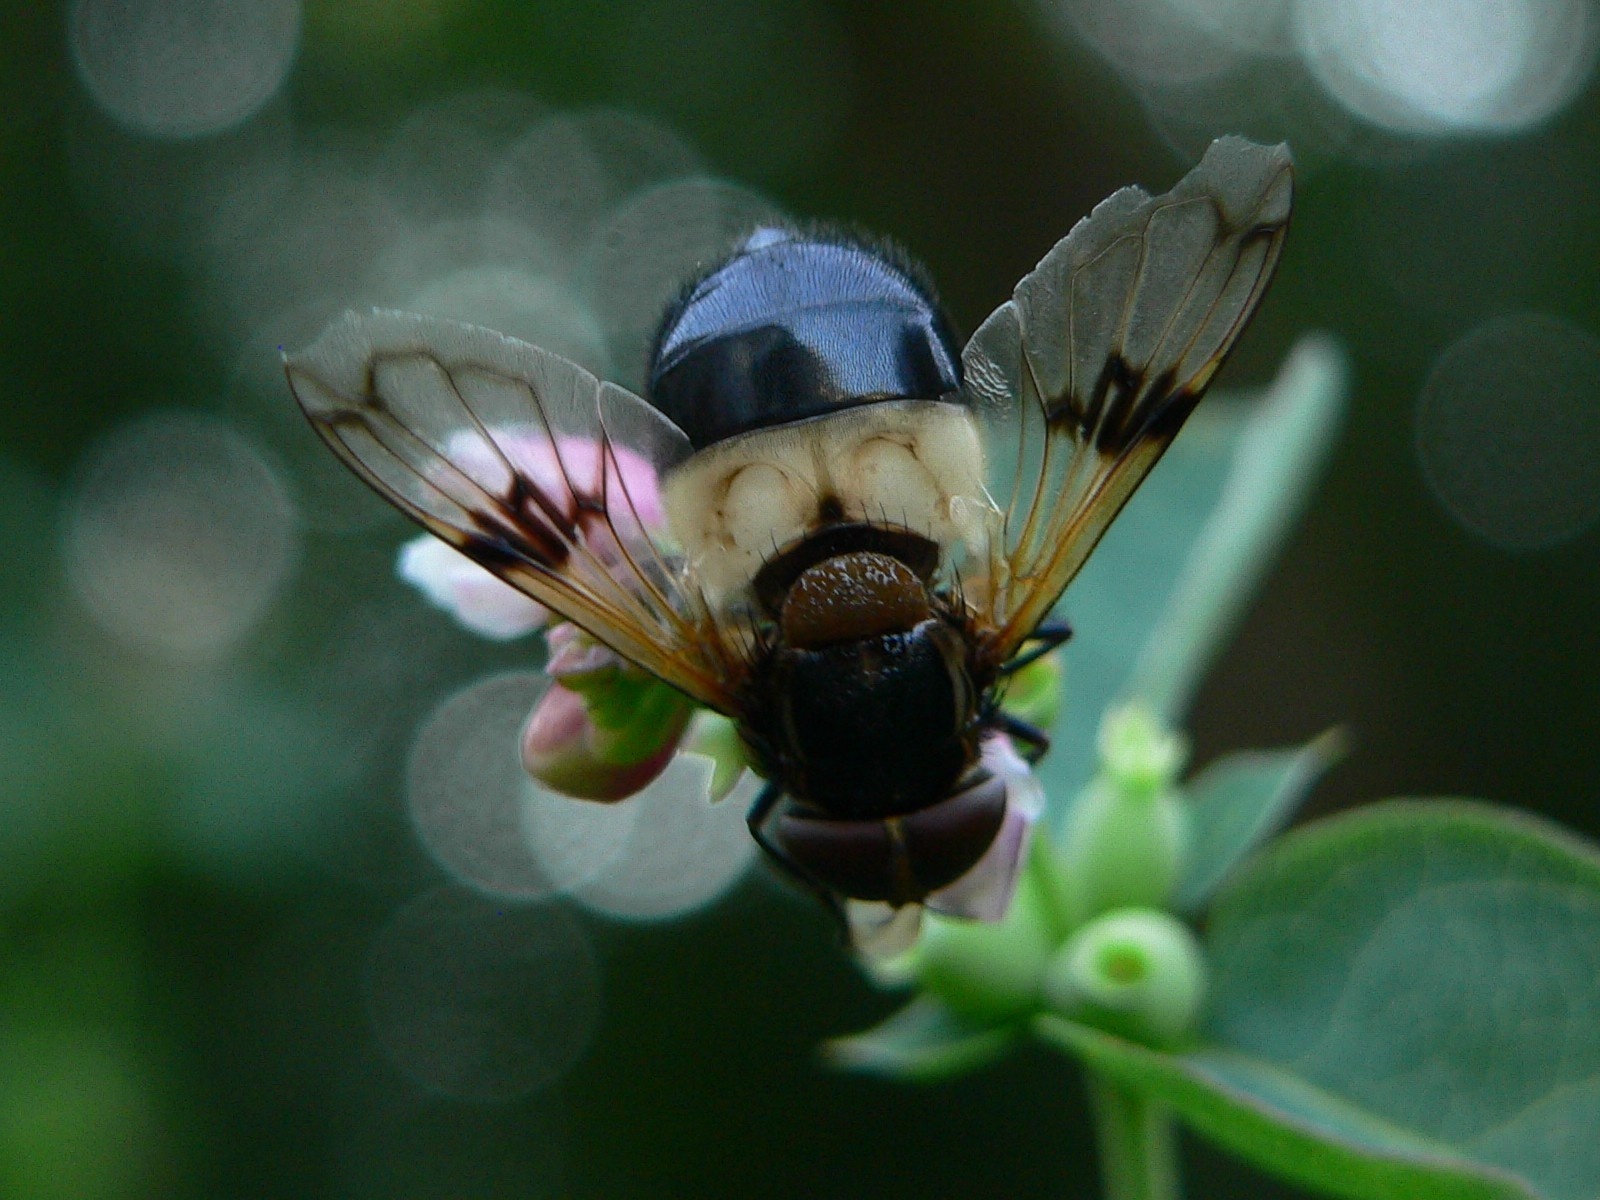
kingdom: Animalia
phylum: Arthropoda
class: Insecta
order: Diptera
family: Syrphidae
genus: Volucella
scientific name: Volucella pellucens
